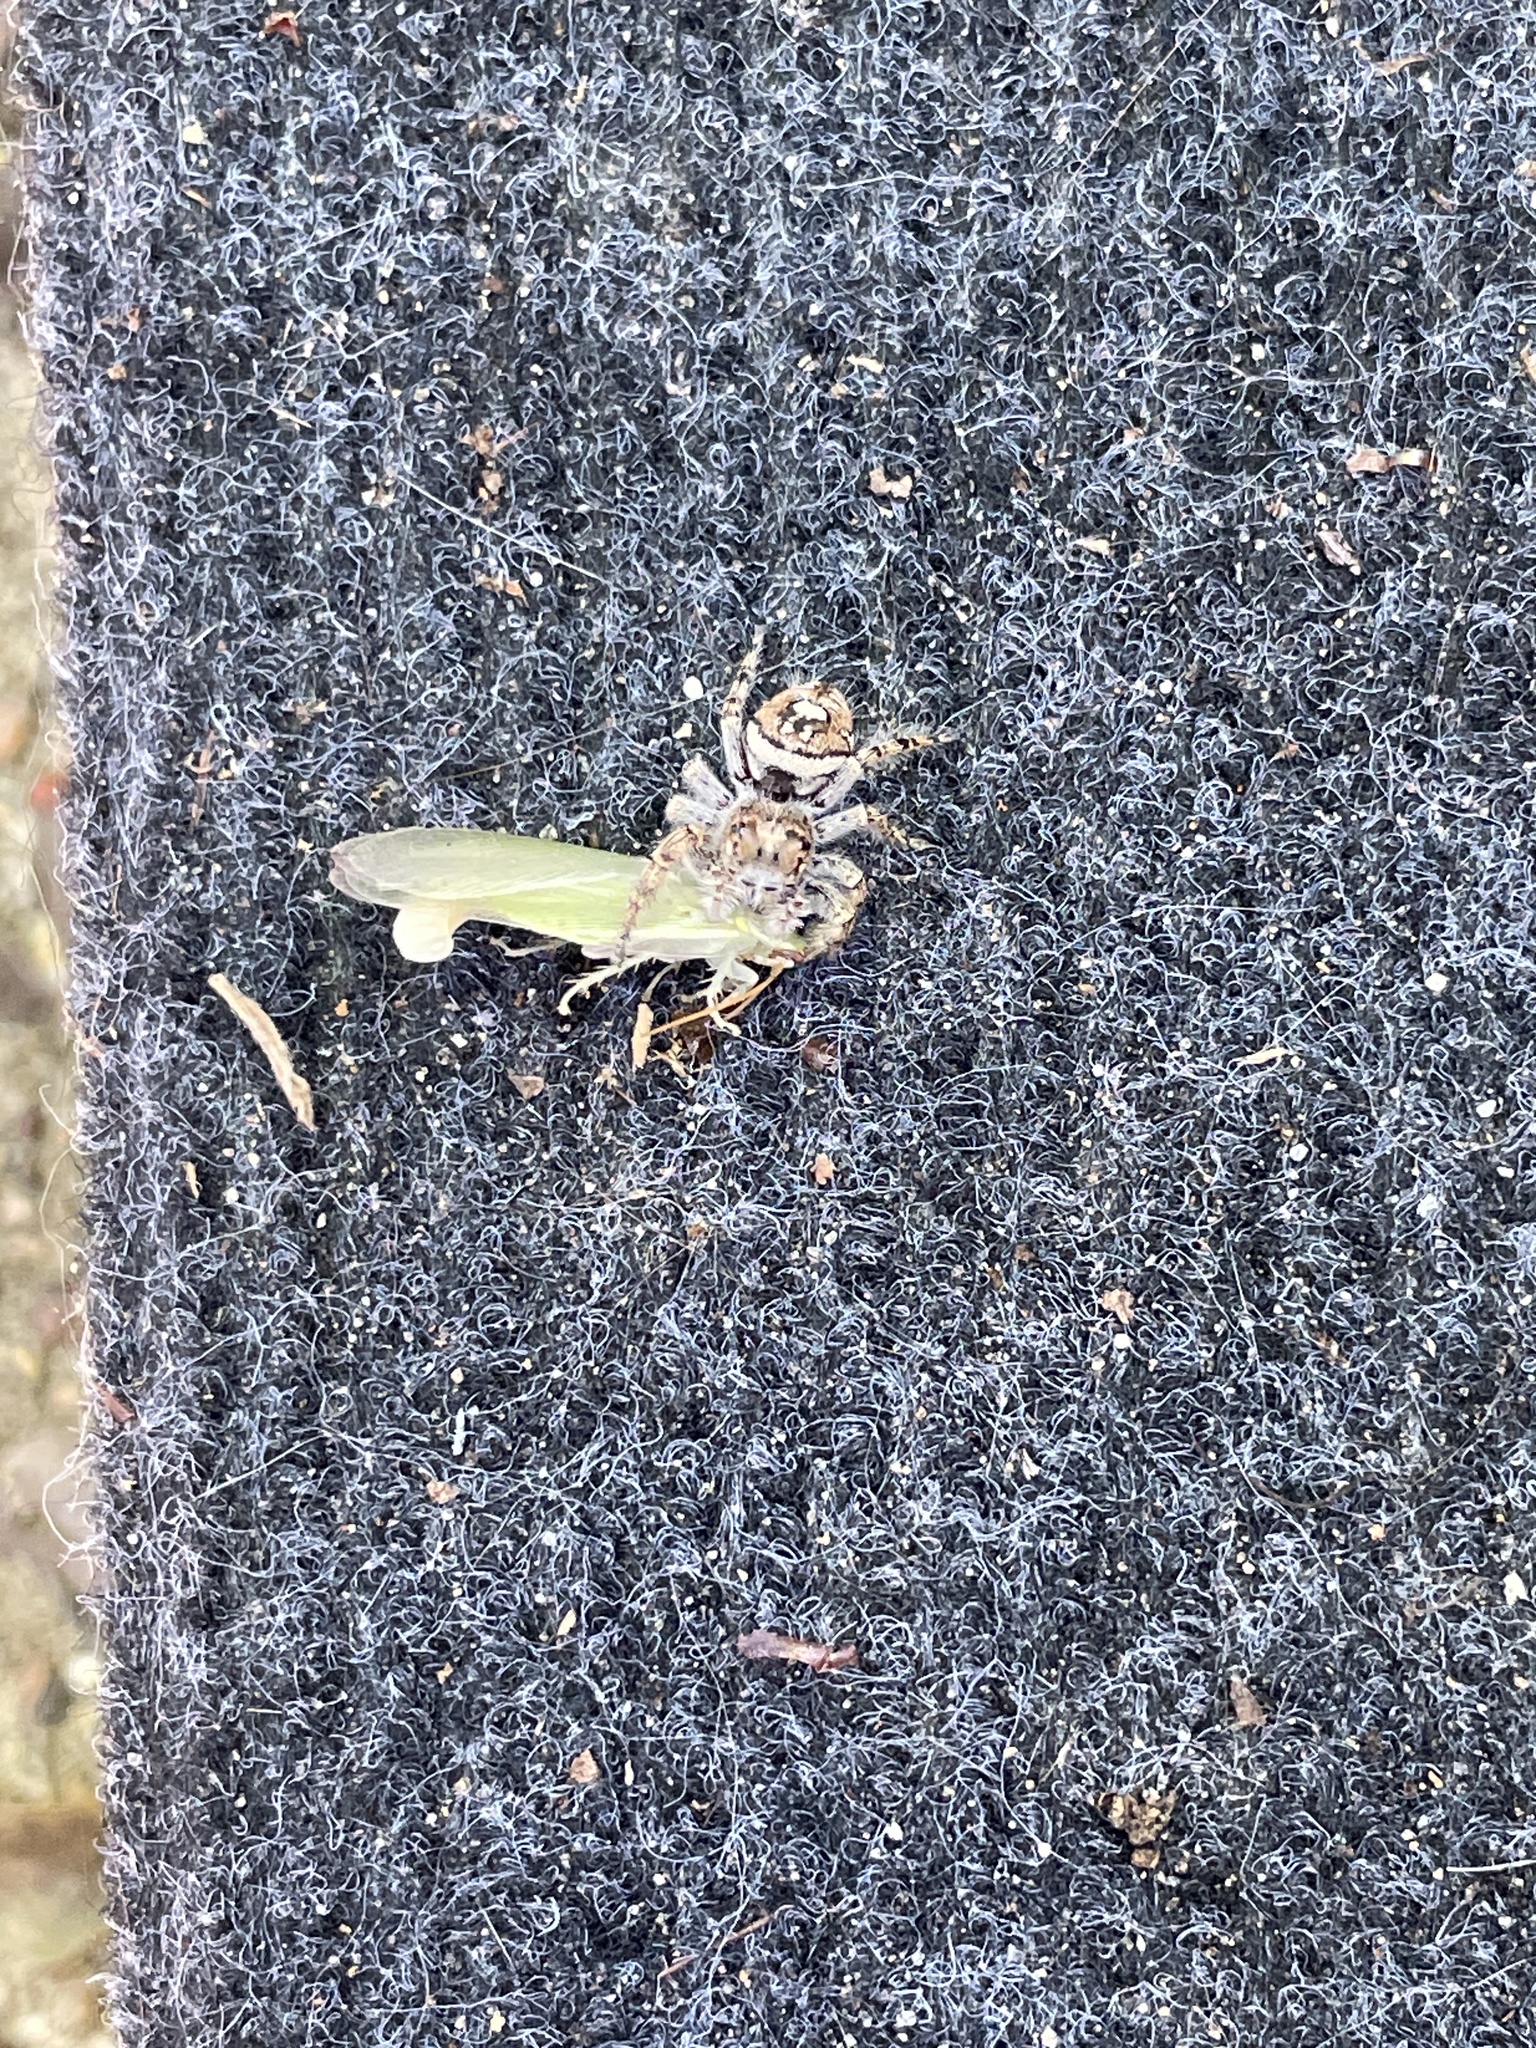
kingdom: Animalia
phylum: Arthropoda
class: Arachnida
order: Araneae
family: Salticidae
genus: Phidippus
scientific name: Phidippus putnami
